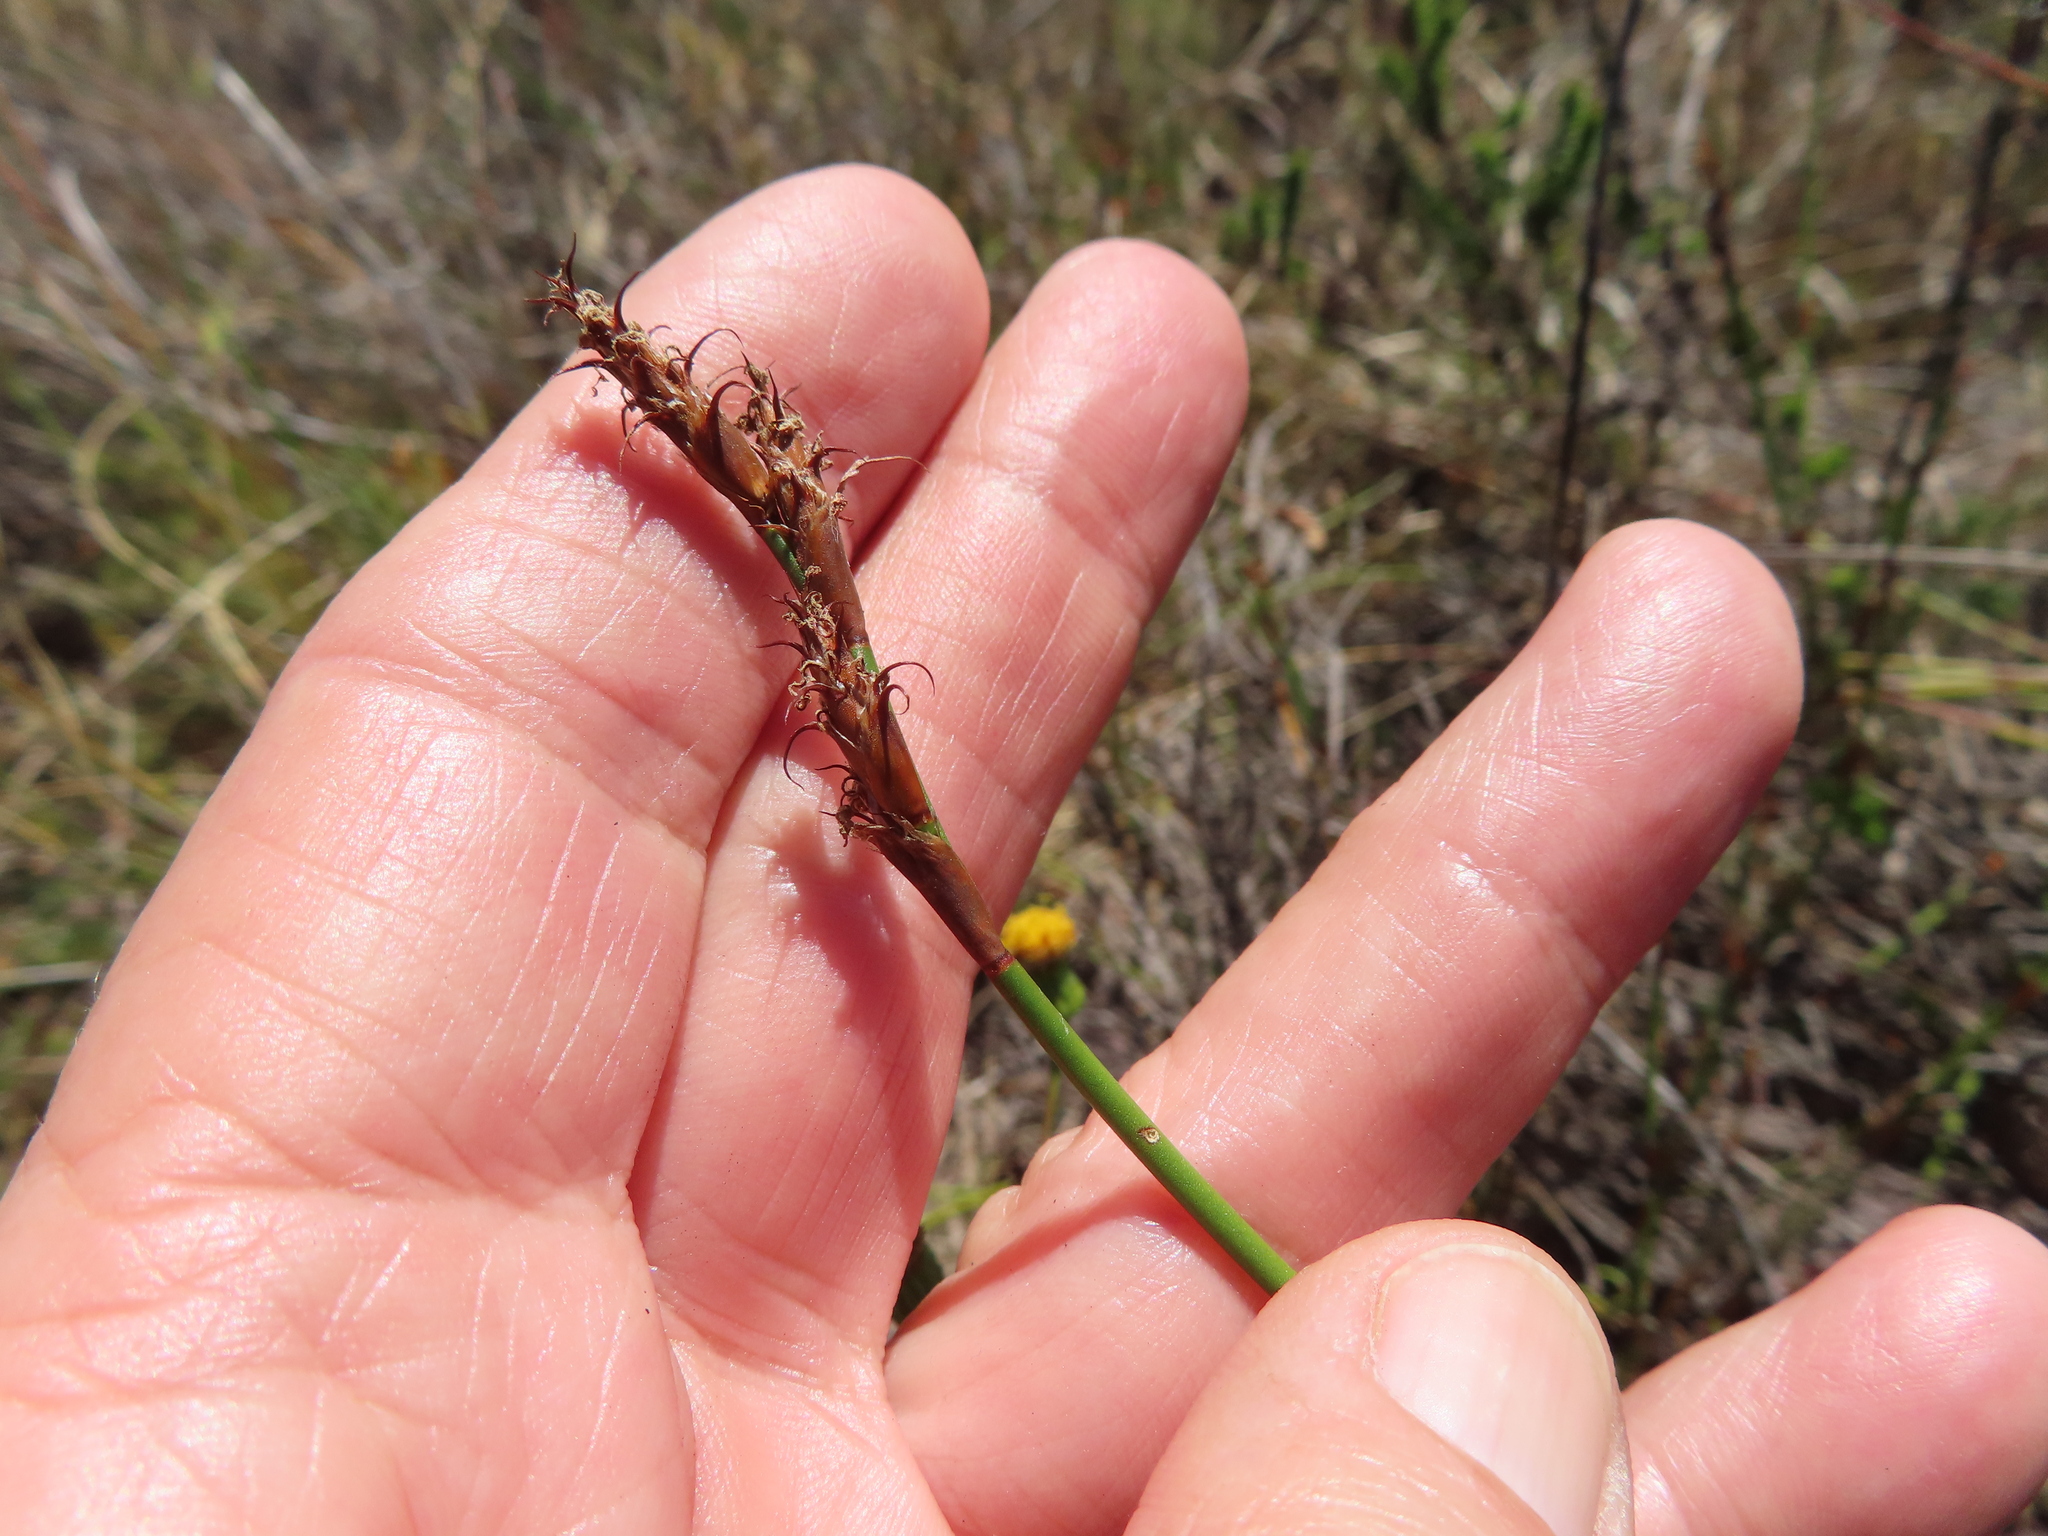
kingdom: Plantae
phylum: Tracheophyta
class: Liliopsida
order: Poales
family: Restionaceae
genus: Restio
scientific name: Restio capensis
